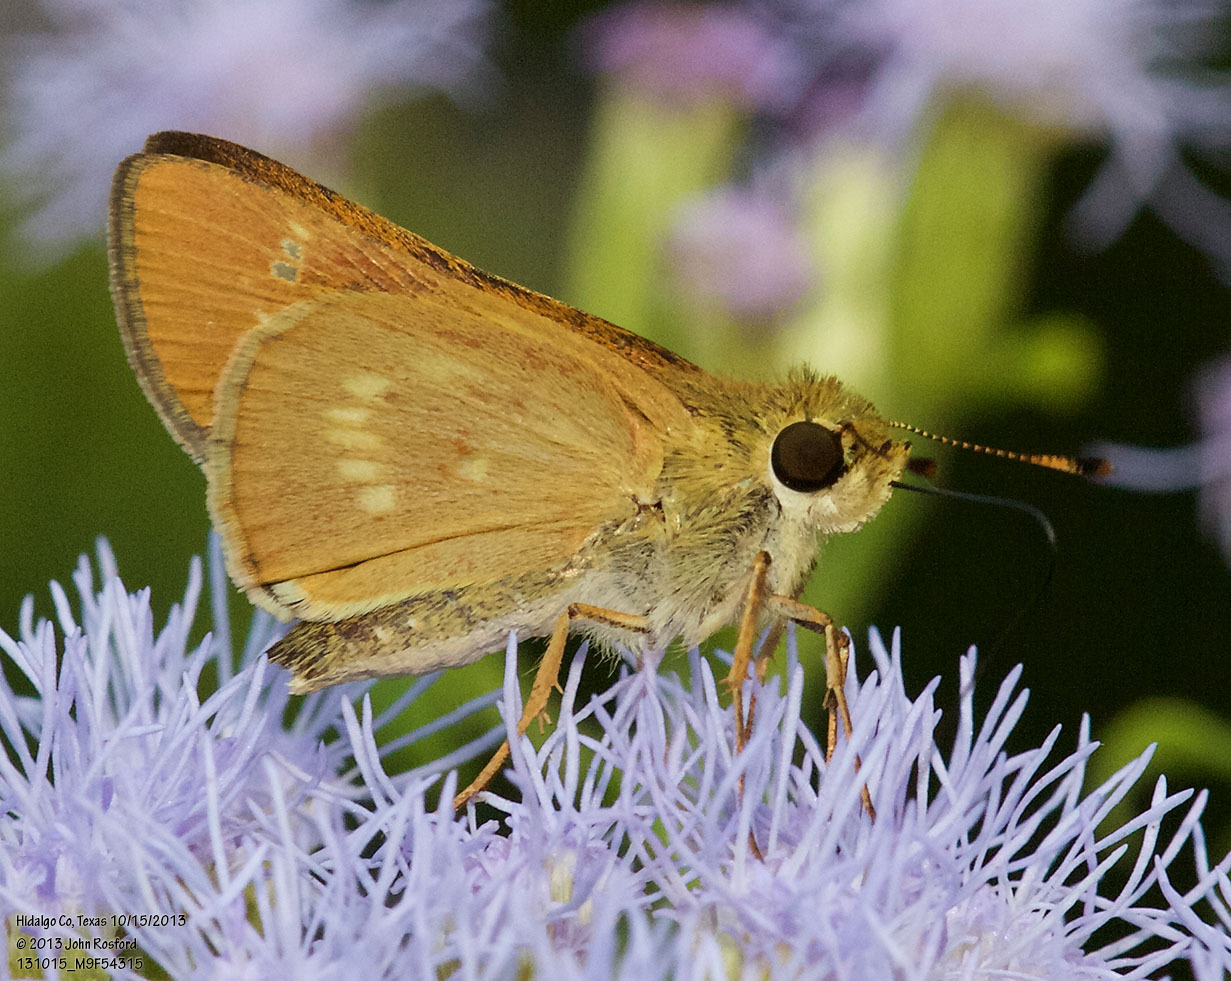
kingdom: Animalia
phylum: Arthropoda
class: Insecta
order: Lepidoptera
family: Hesperiidae
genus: Mellana
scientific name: Mellana eulogius
